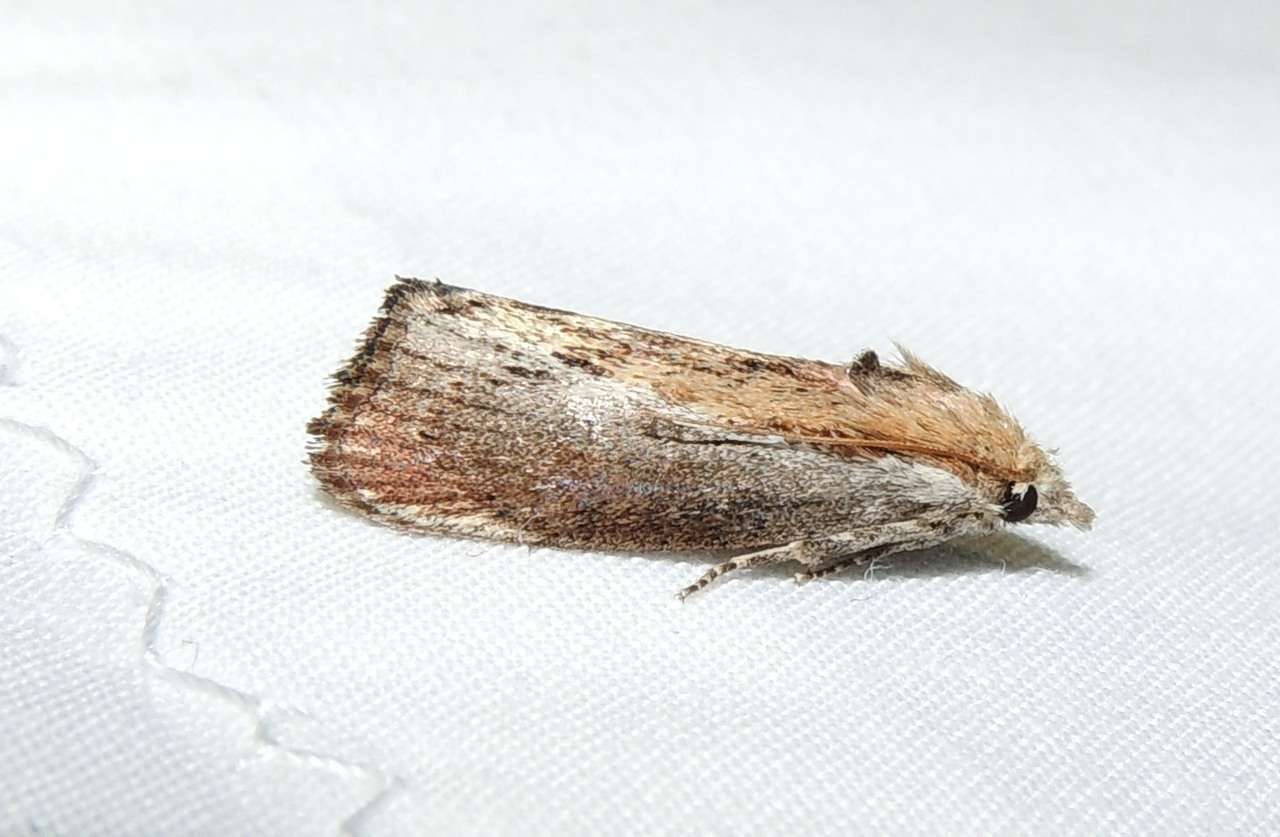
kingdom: Animalia
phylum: Arthropoda
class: Insecta
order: Lepidoptera
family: Pyralidae
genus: Galleria
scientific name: Galleria mellonella
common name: Greater wax moth
